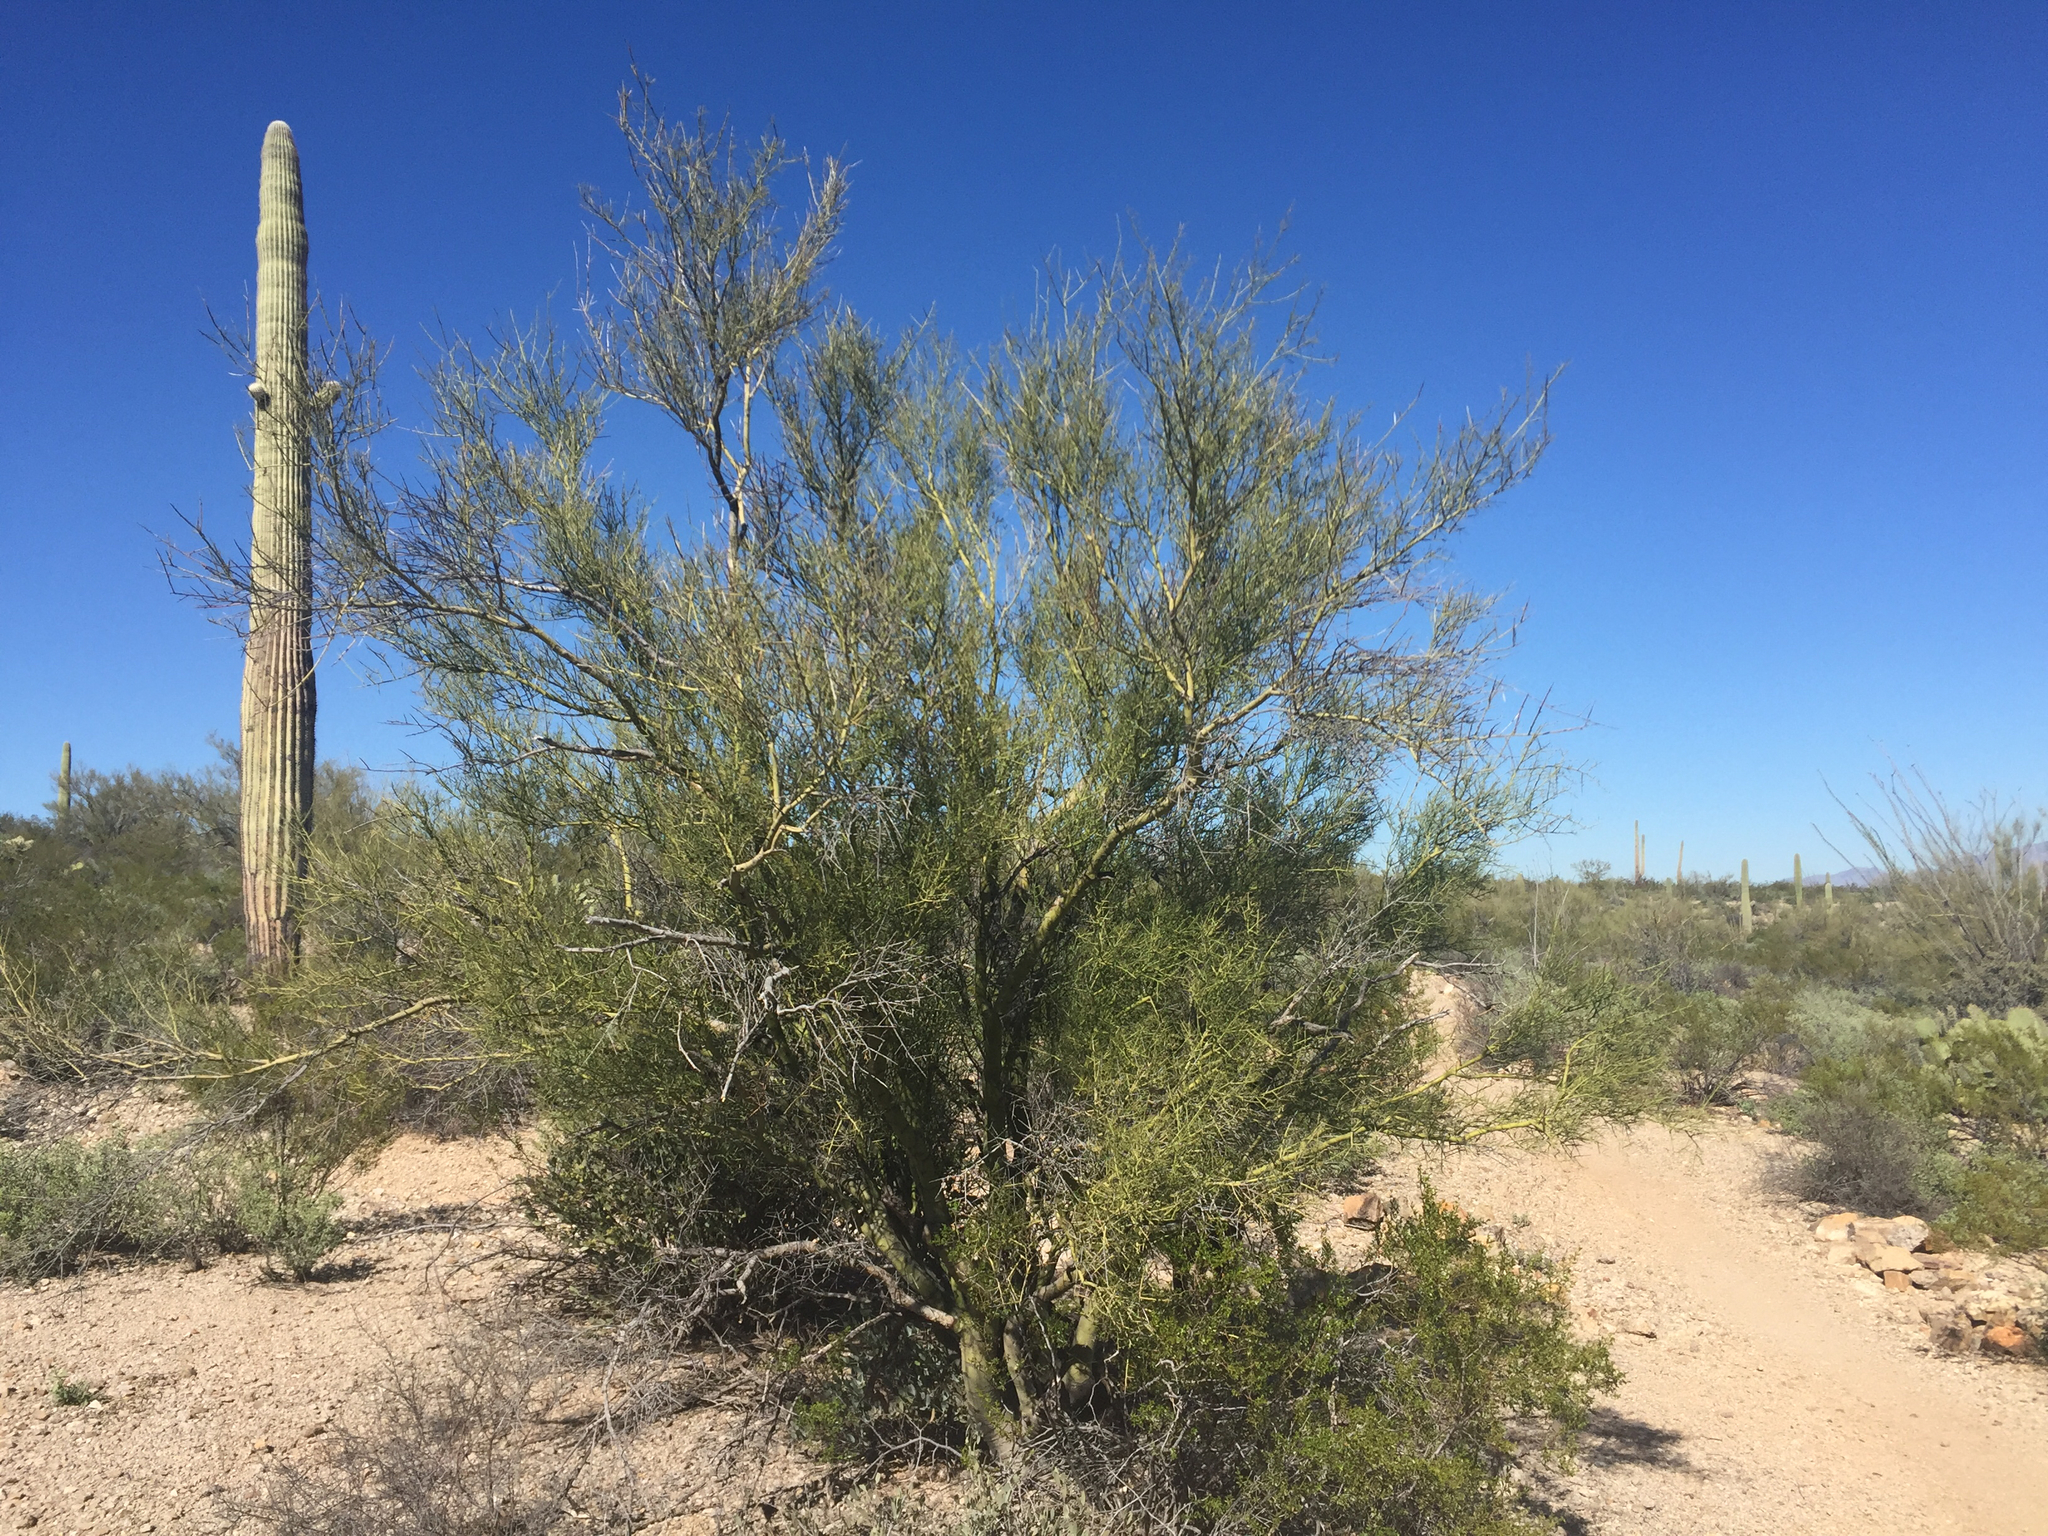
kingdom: Plantae
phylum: Tracheophyta
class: Magnoliopsida
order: Fabales
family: Fabaceae
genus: Parkinsonia
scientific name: Parkinsonia microphylla
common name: Yellow paloverde
